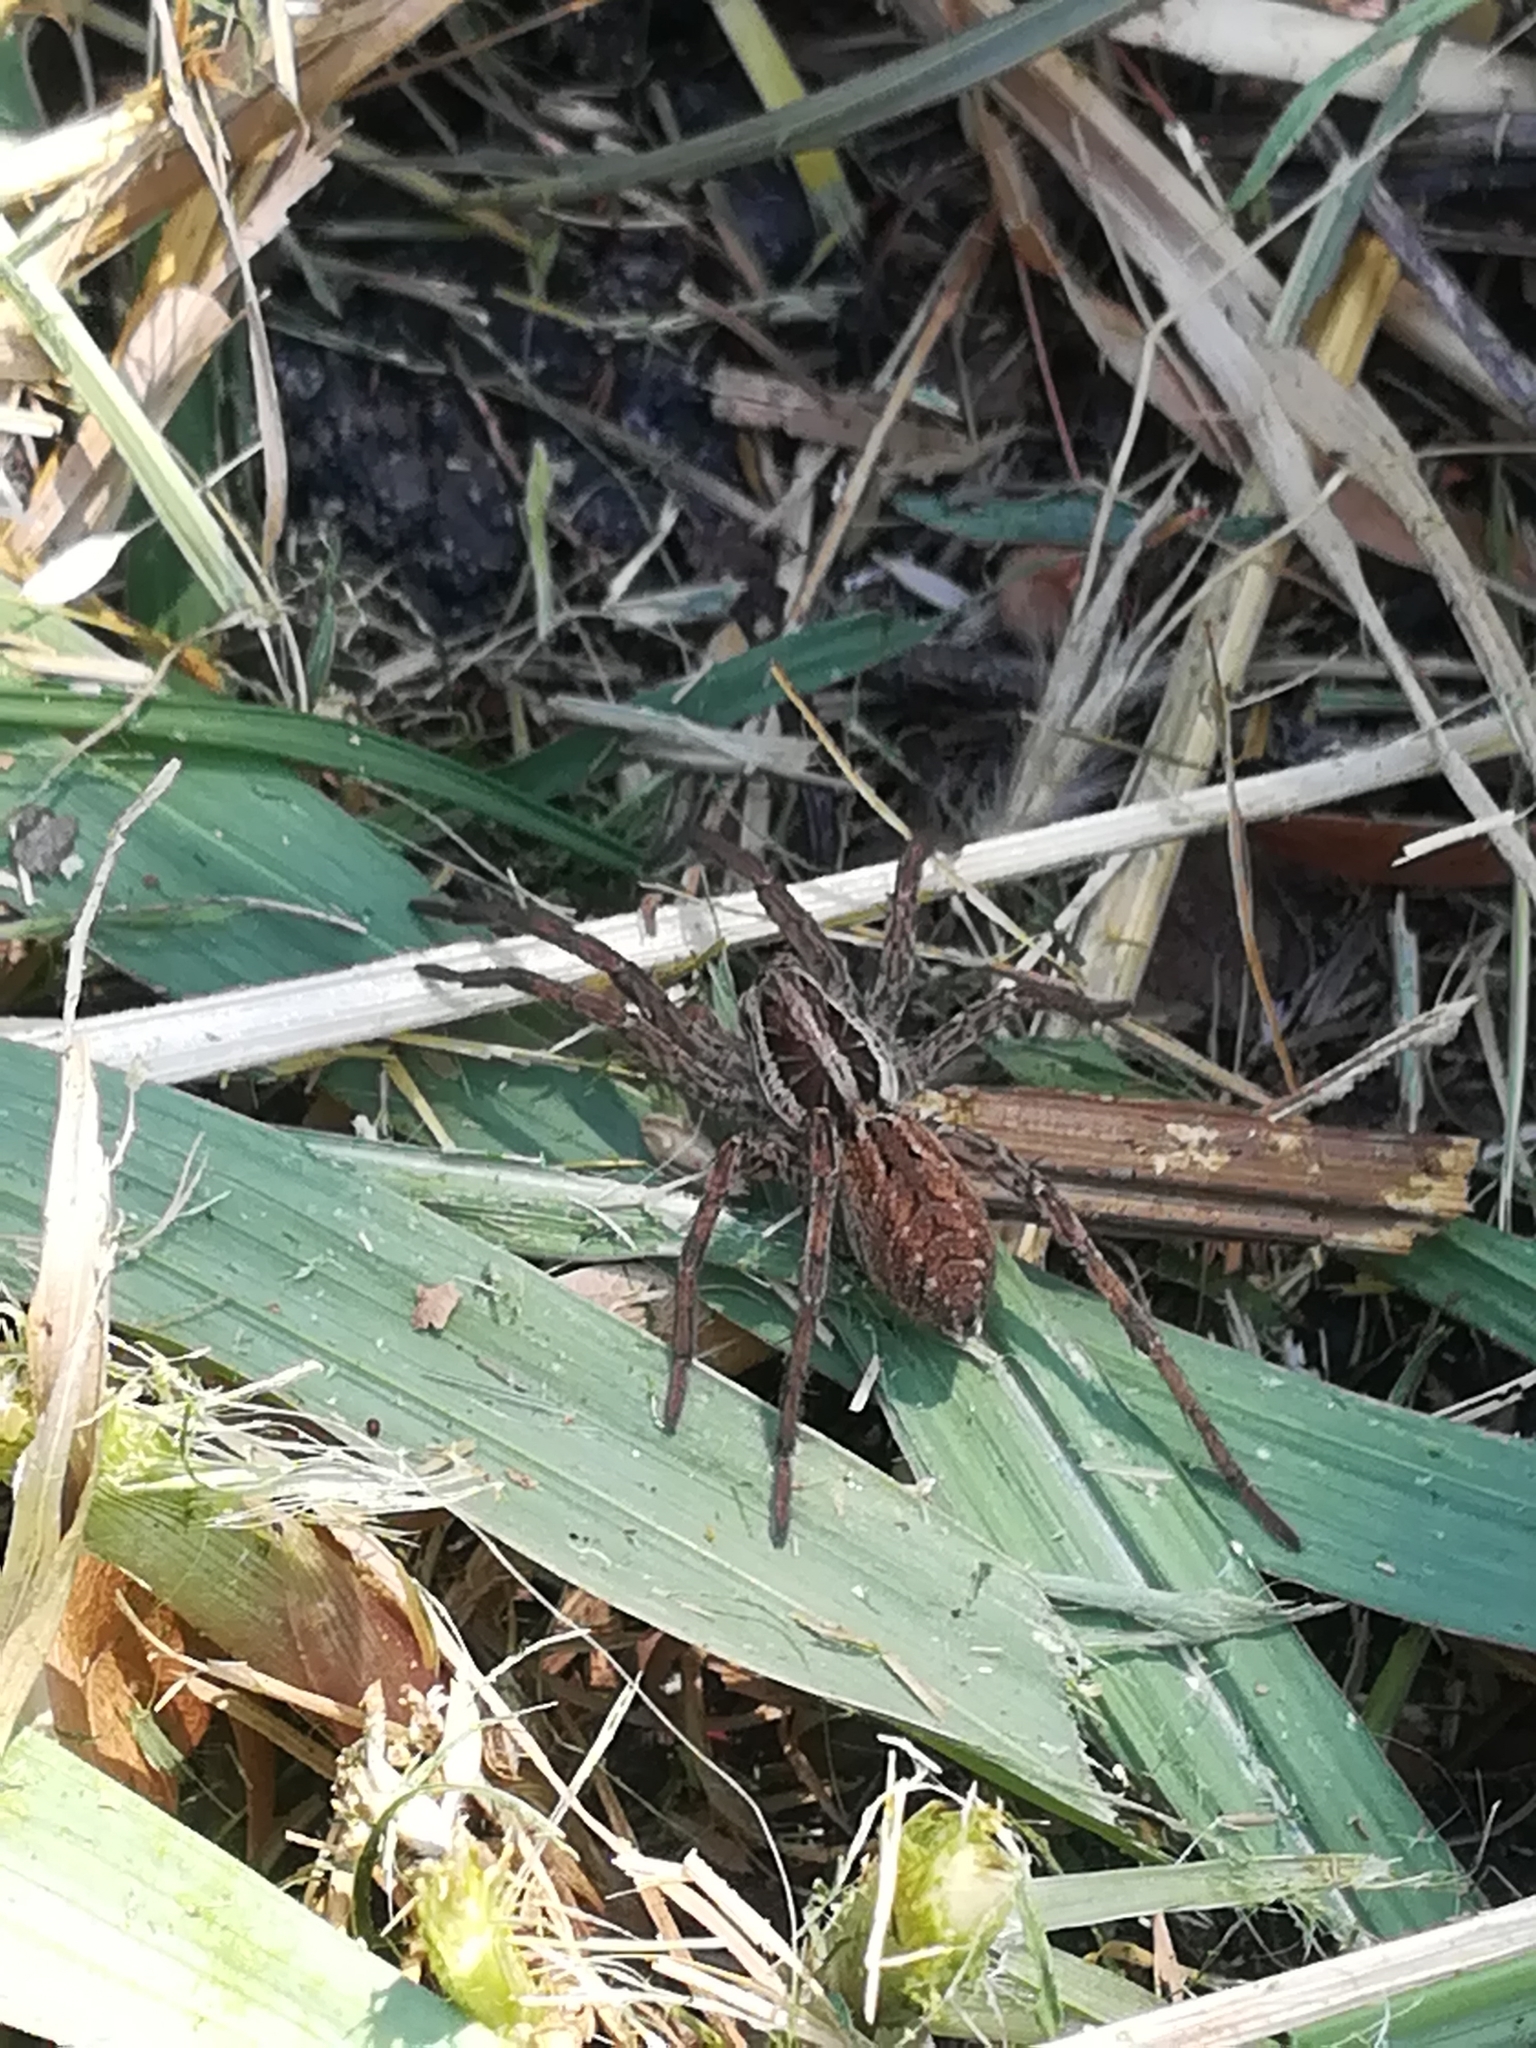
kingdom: Animalia
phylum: Arthropoda
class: Arachnida
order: Araneae
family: Lycosidae
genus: Hogna
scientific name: Hogna radiata
